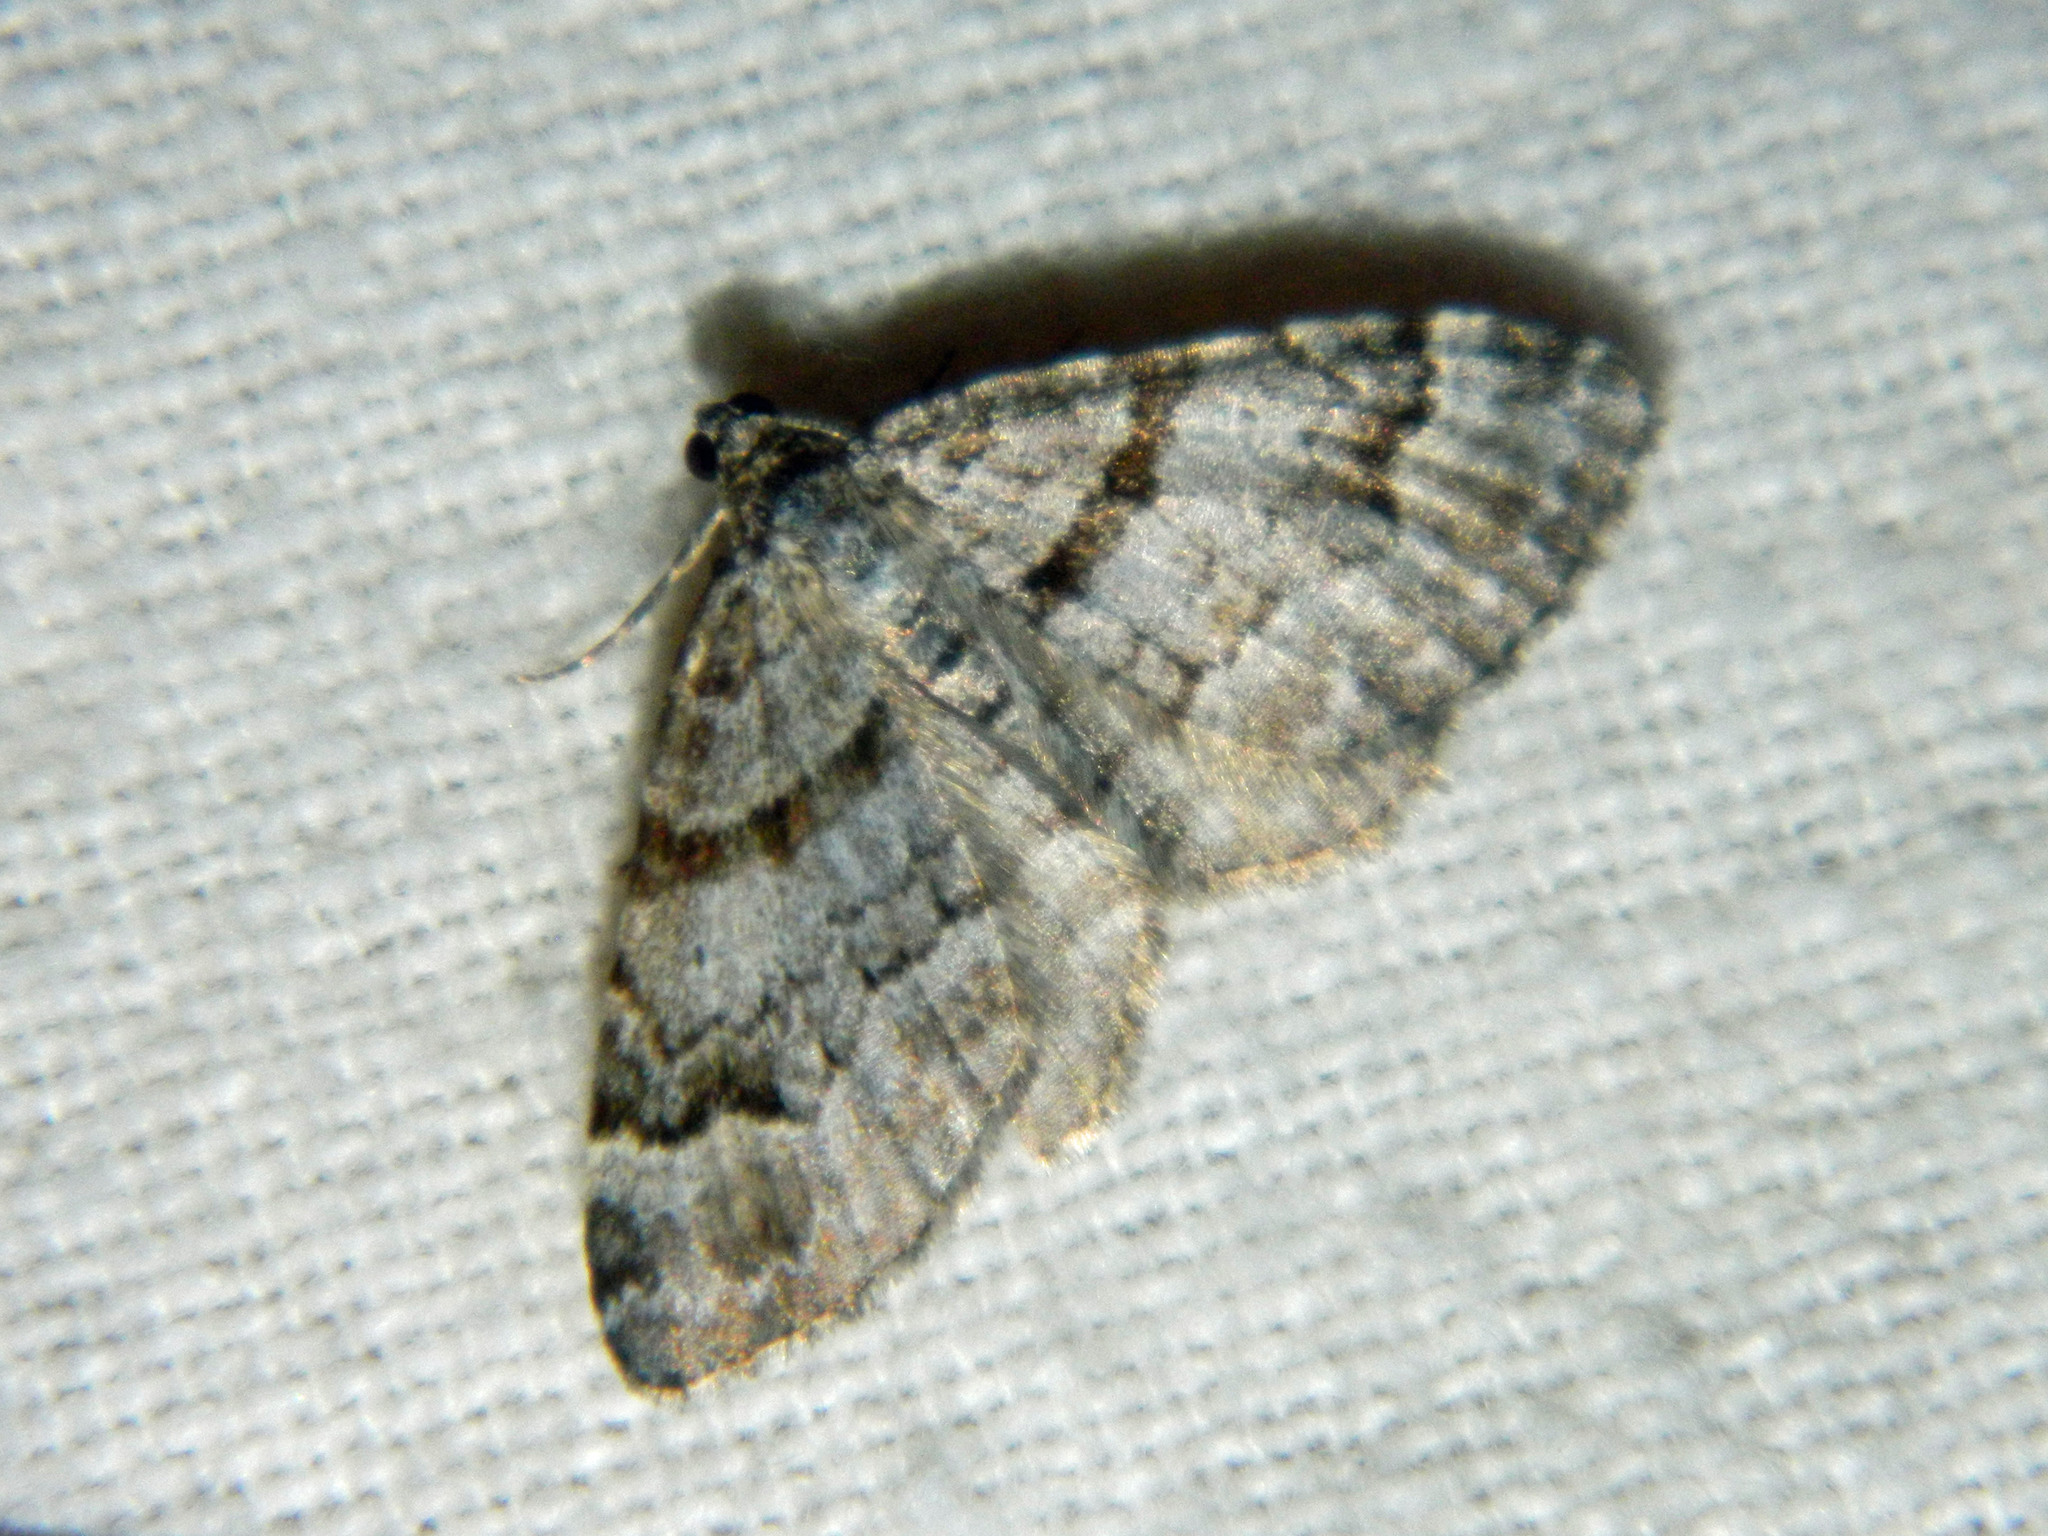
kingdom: Animalia
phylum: Arthropoda
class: Insecta
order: Lepidoptera
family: Geometridae
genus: Xanthorhoe
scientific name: Xanthorhoe abrasaria
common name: Northern carpet
